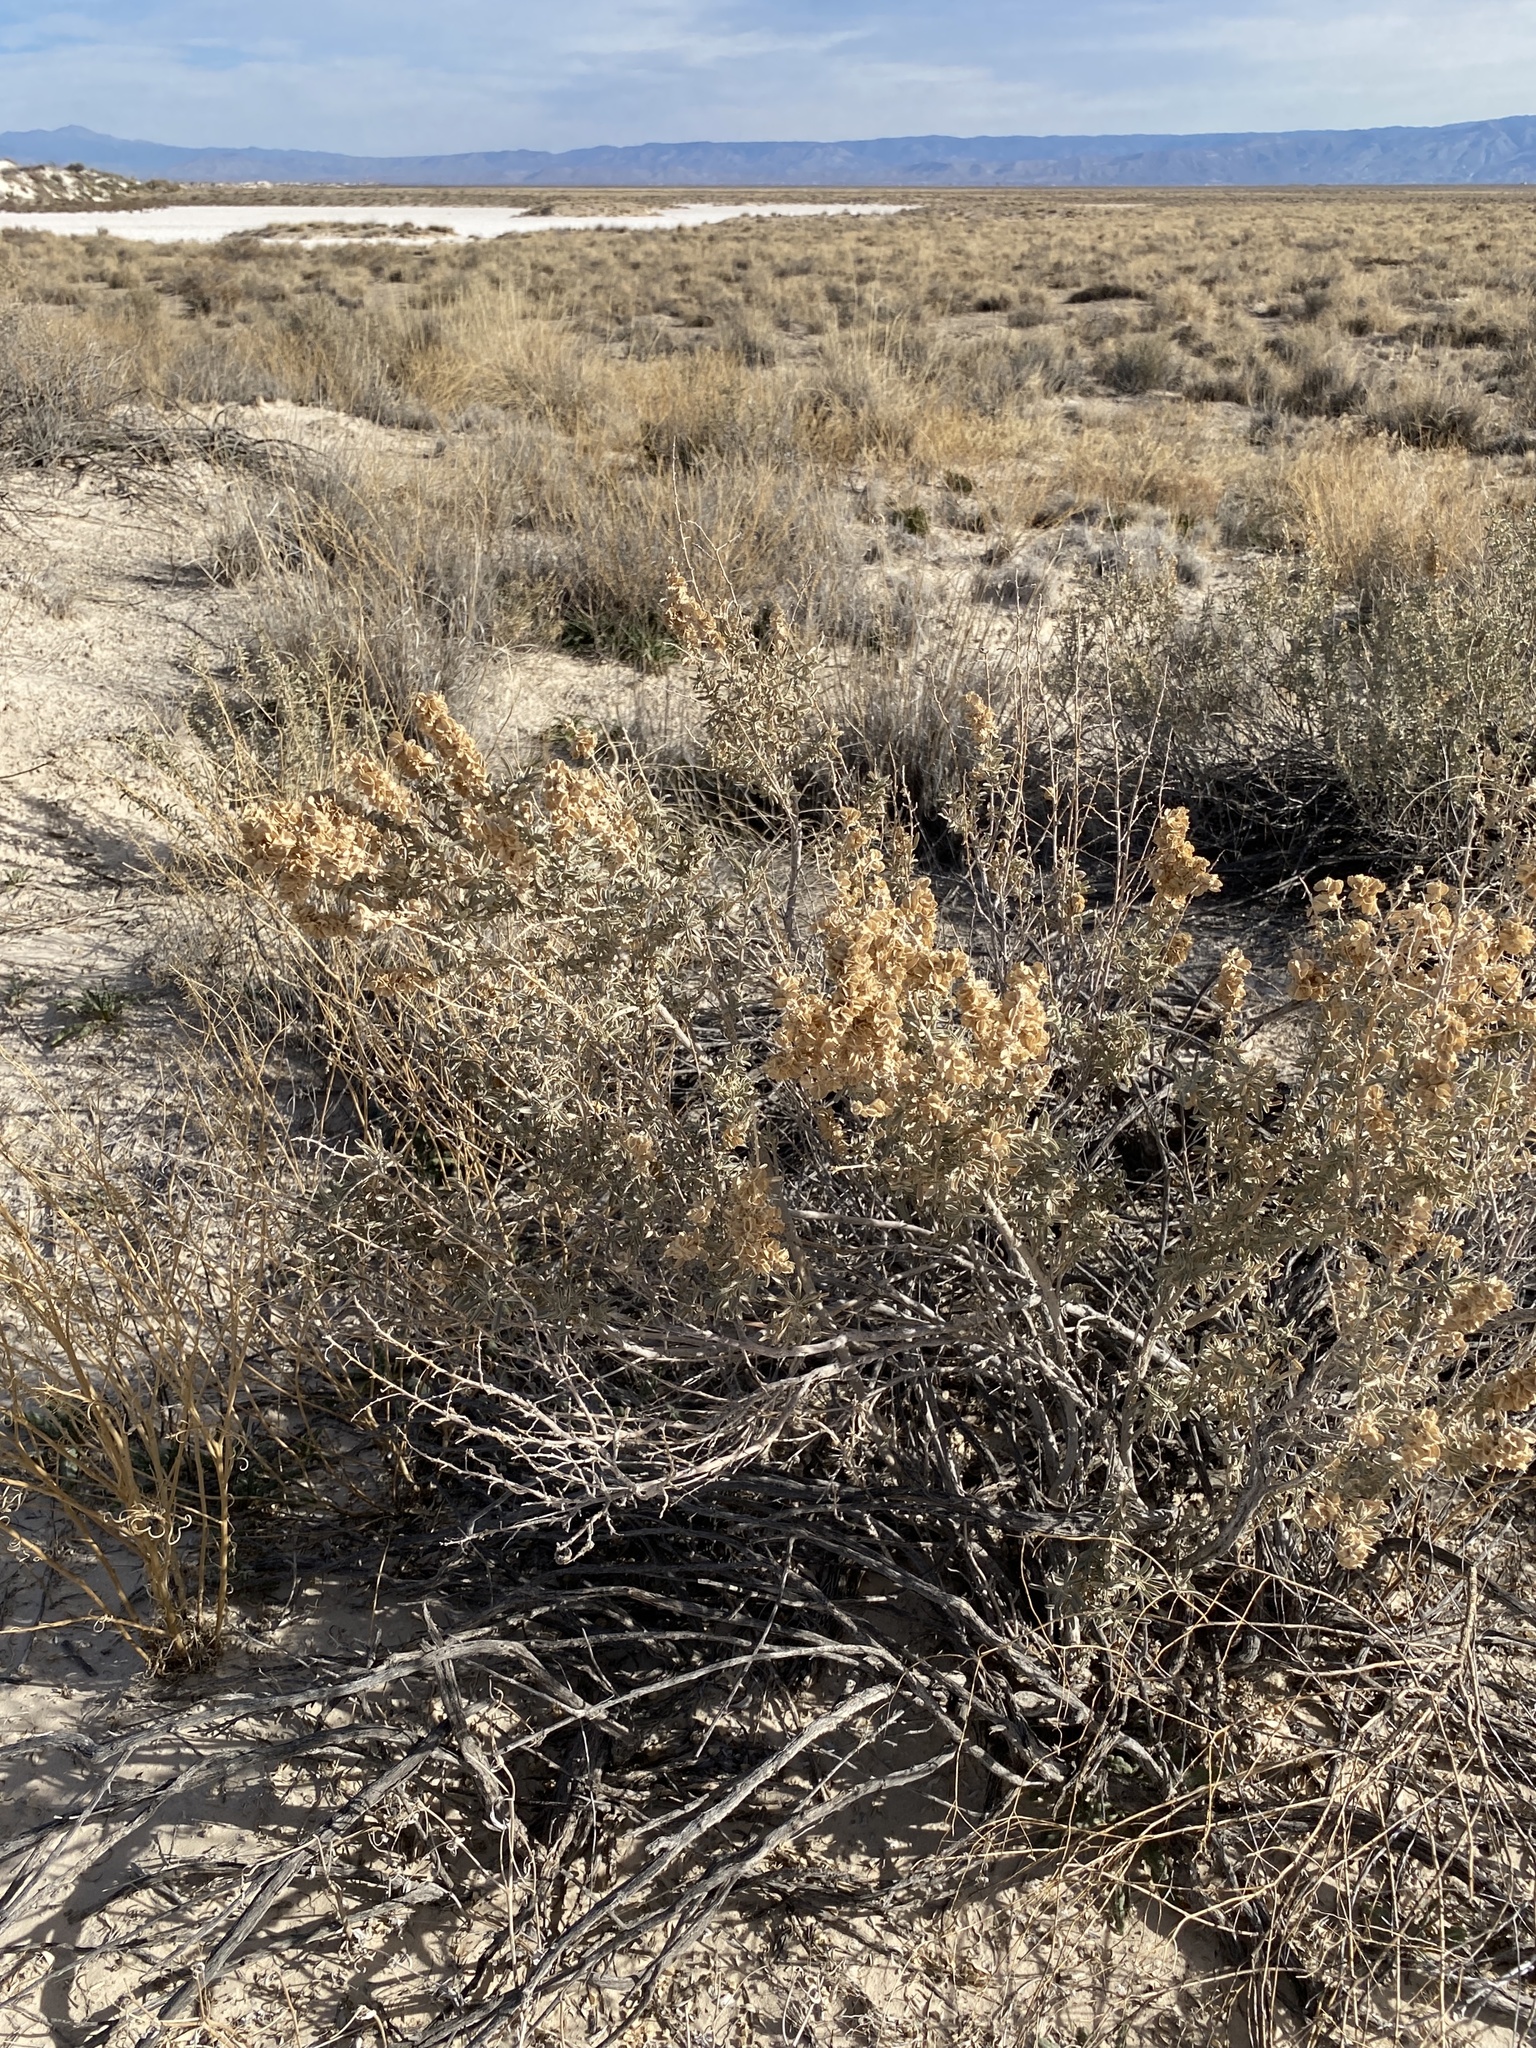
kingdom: Plantae
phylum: Tracheophyta
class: Magnoliopsida
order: Caryophyllales
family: Amaranthaceae
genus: Atriplex
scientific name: Atriplex canescens
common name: Four-wing saltbush
